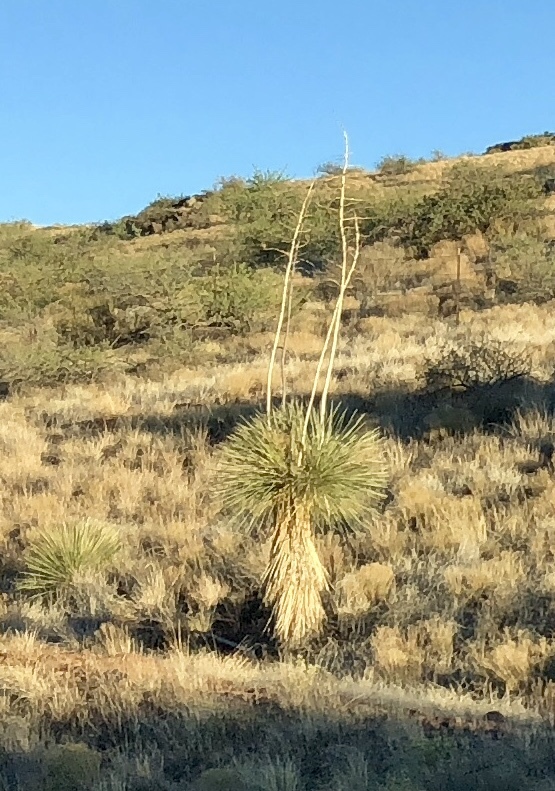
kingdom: Plantae
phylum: Tracheophyta
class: Liliopsida
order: Asparagales
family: Asparagaceae
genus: Yucca
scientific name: Yucca elata
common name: Palmella
